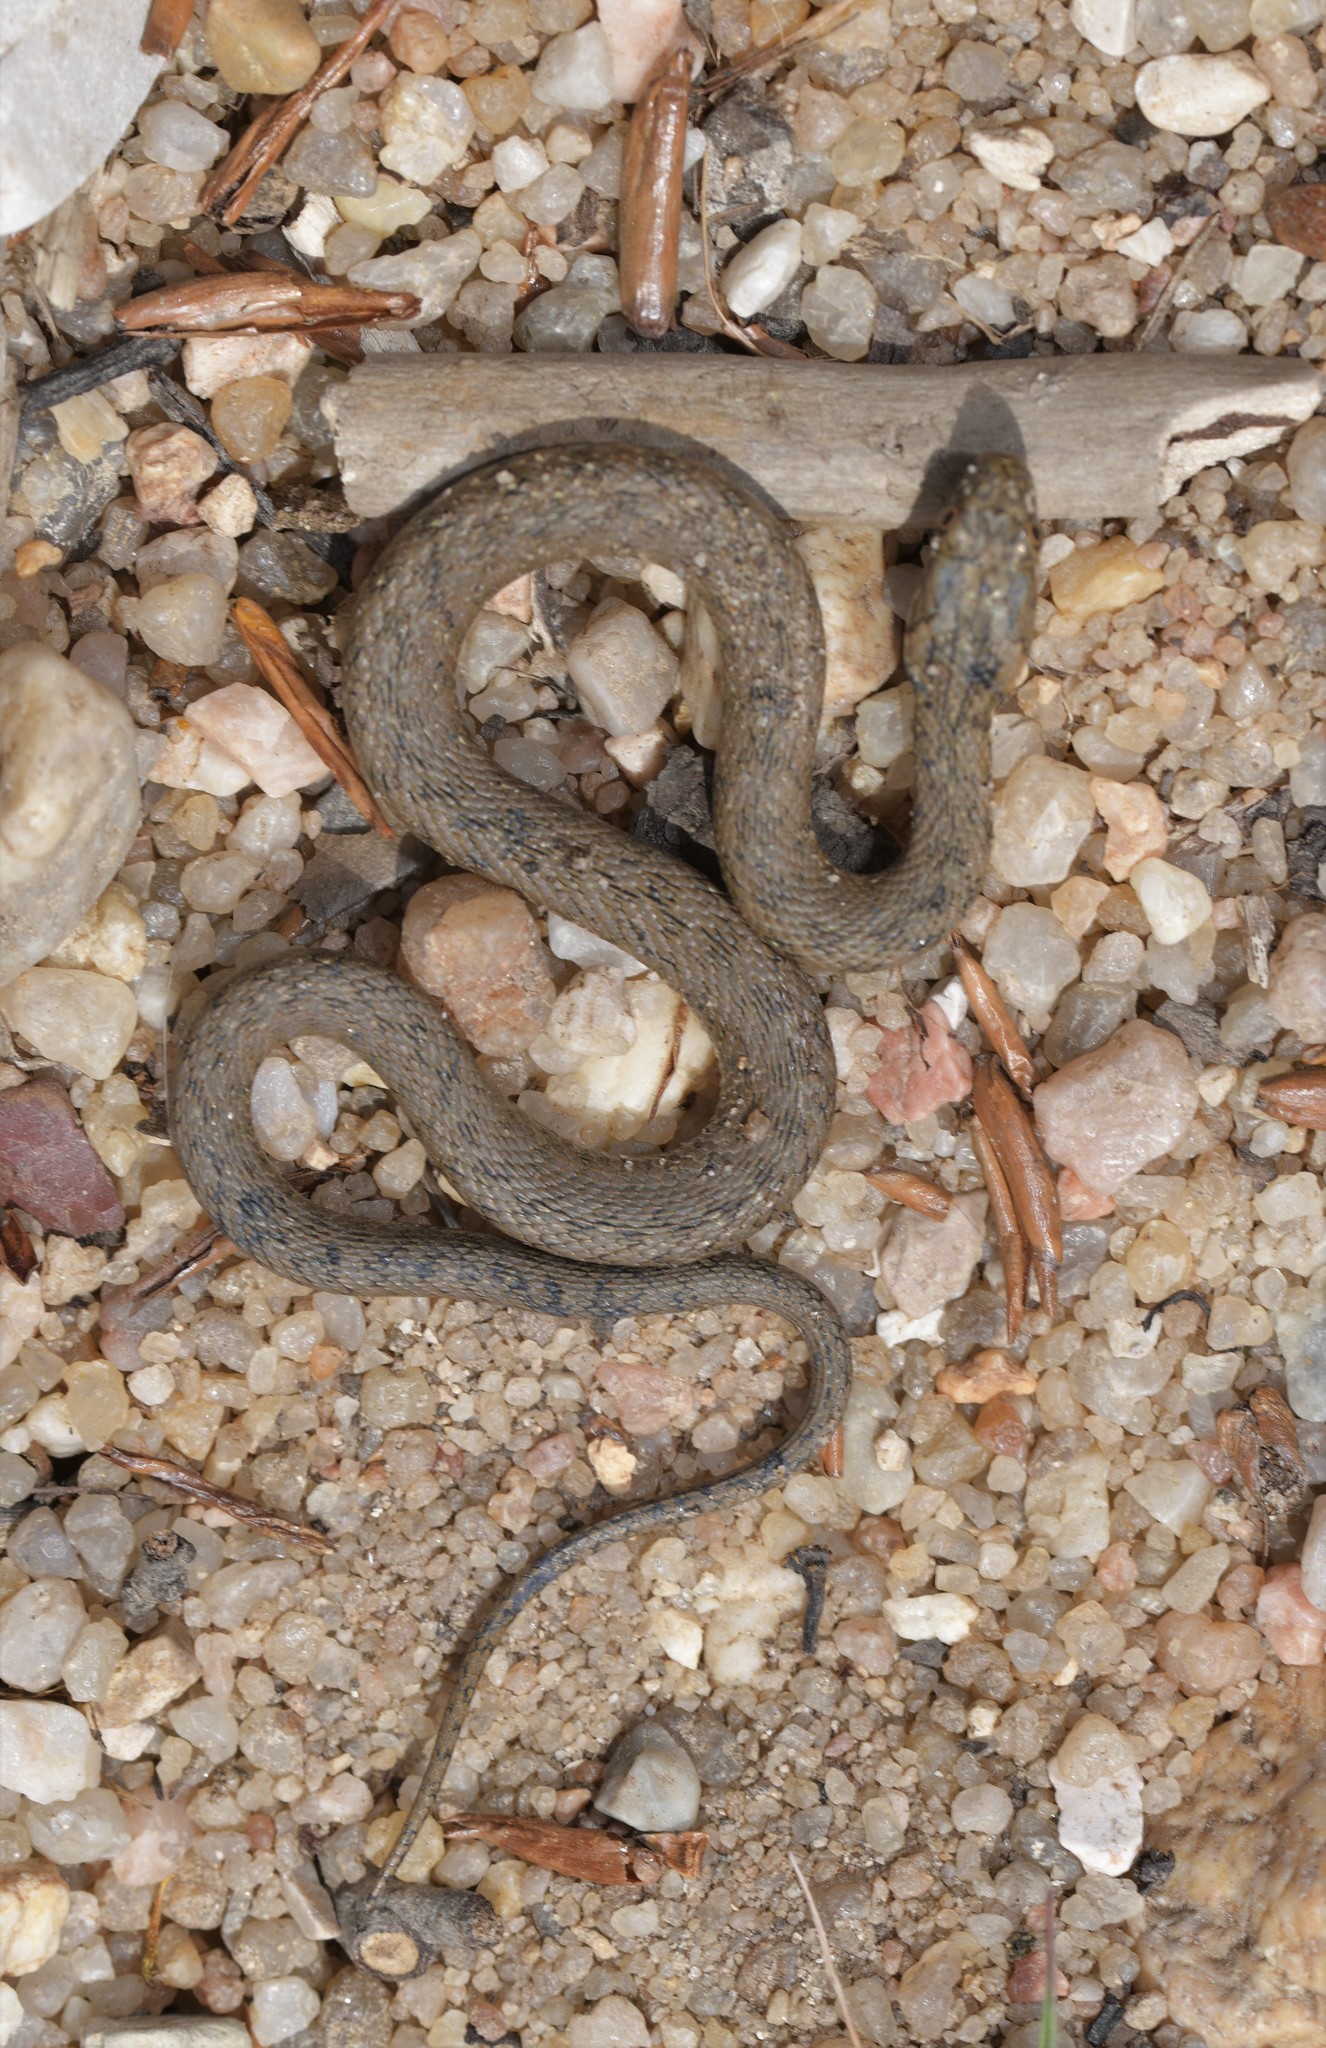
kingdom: Animalia
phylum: Chordata
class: Squamata
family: Colubridae
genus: Natrix
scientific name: Natrix maura
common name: Viperine water snake
